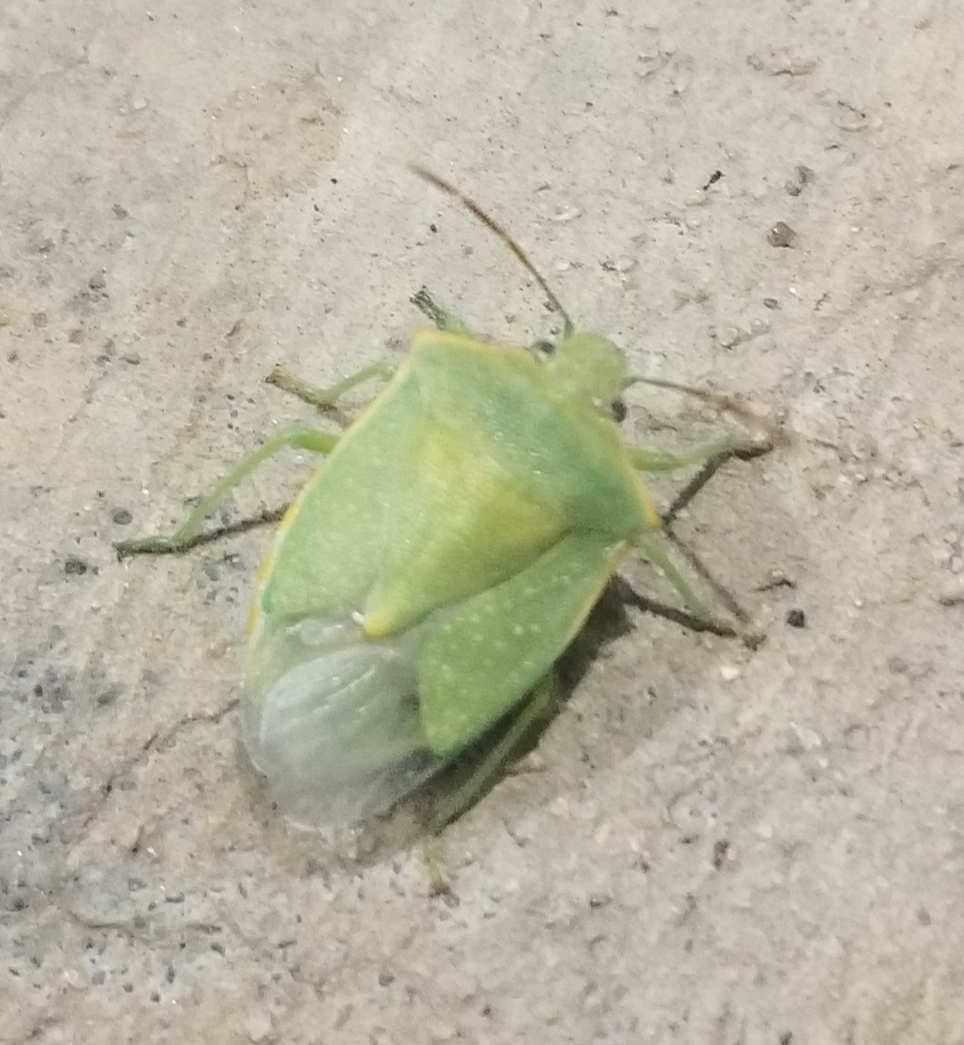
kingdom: Animalia
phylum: Arthropoda
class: Insecta
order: Hemiptera
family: Pentatomidae
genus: Thyanta
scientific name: Thyanta custator
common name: Stink bug
